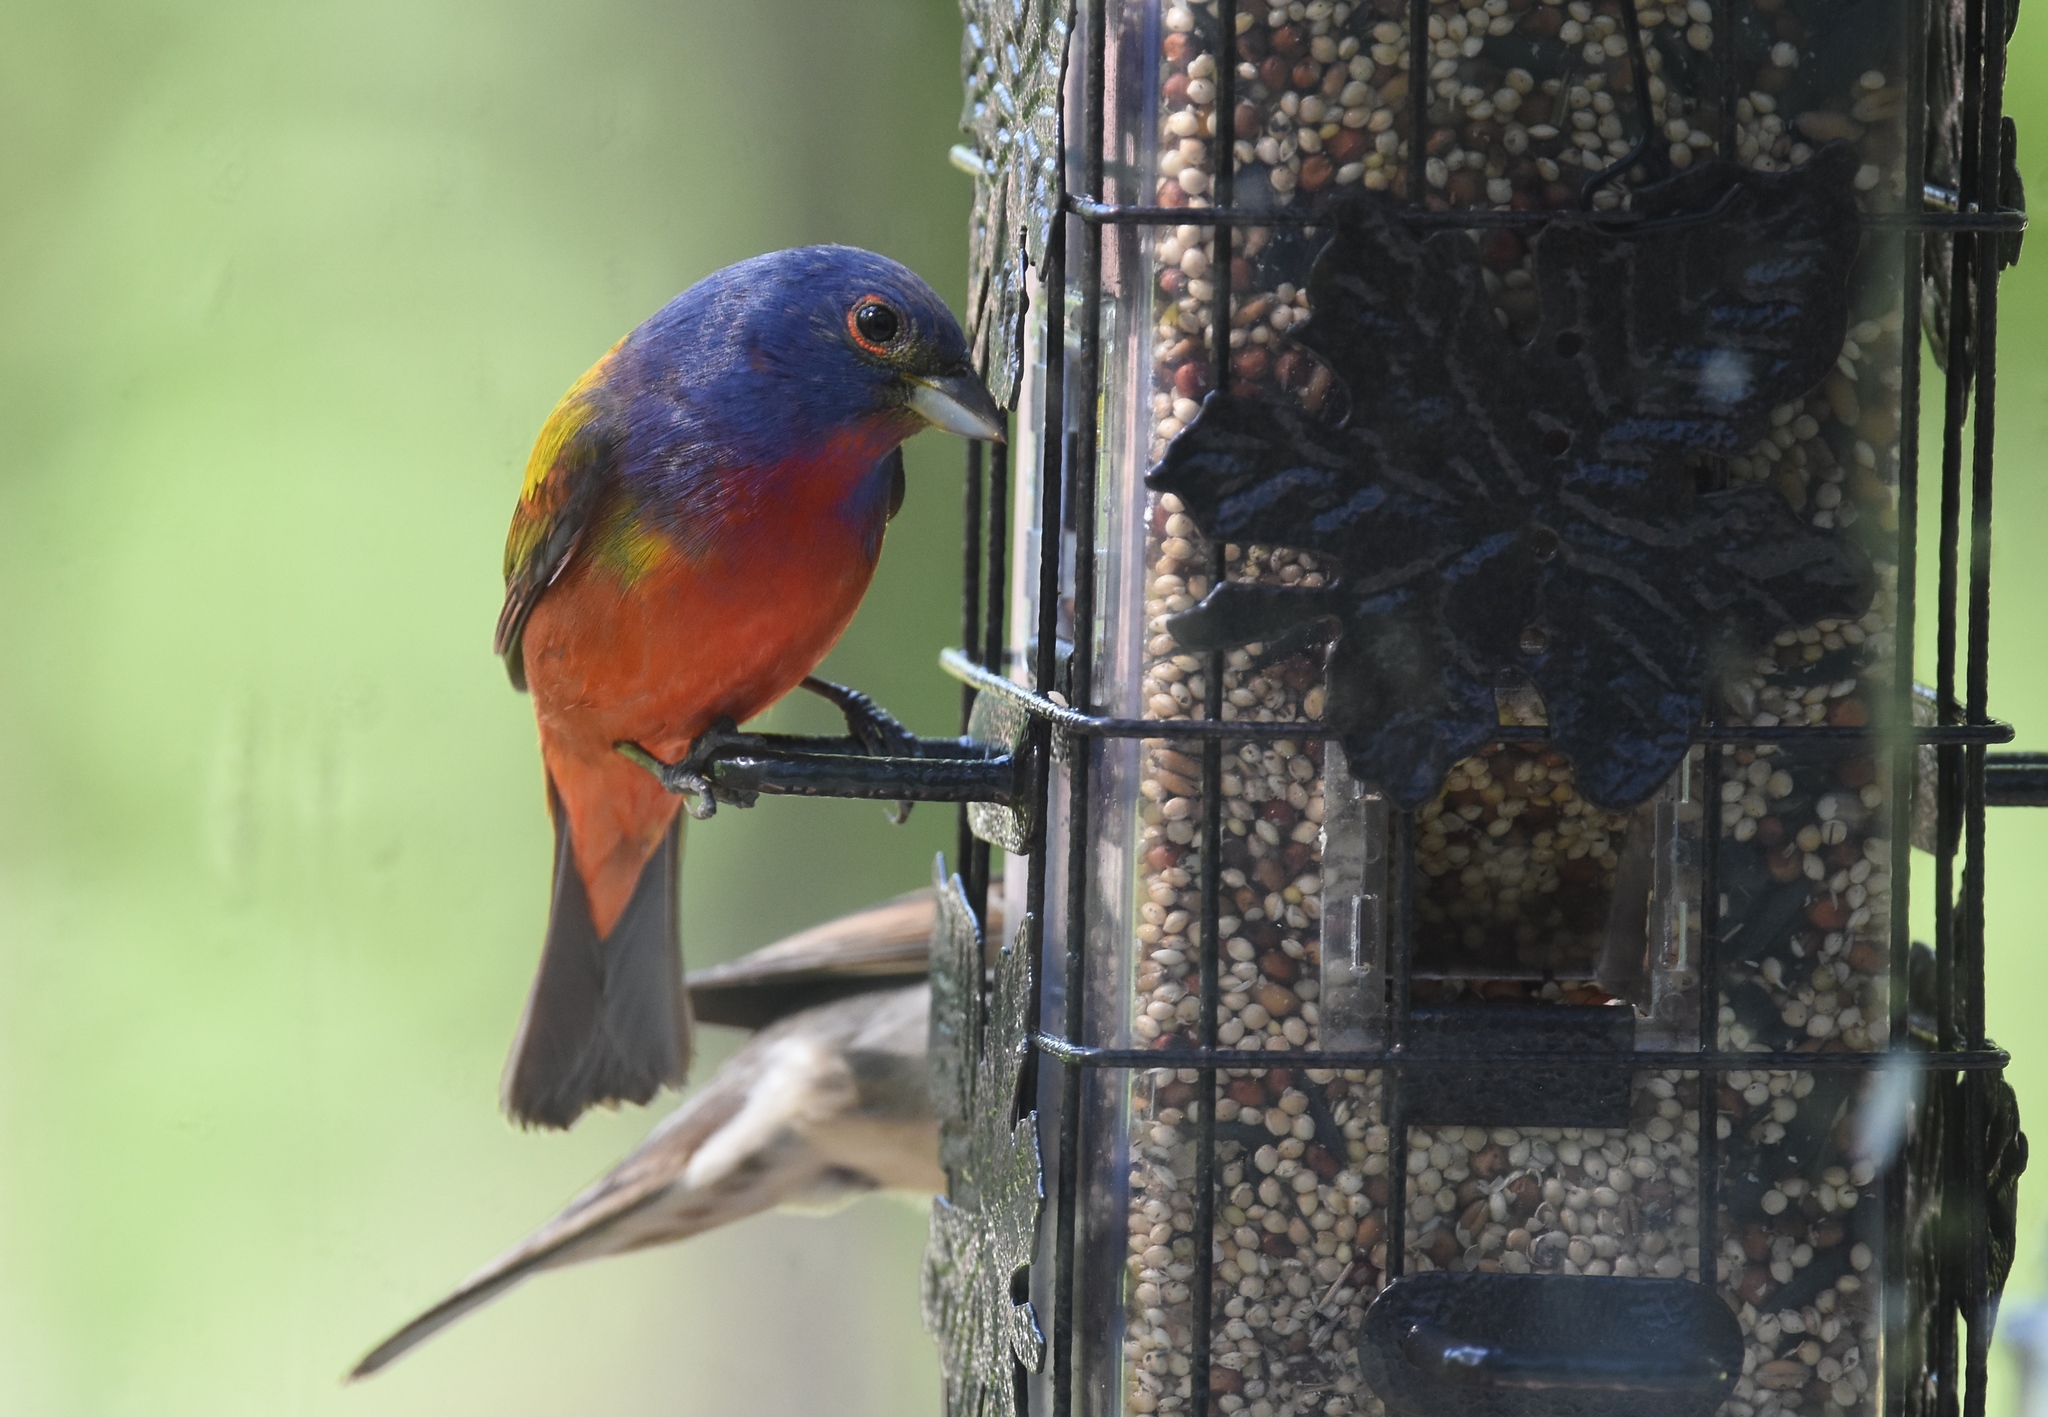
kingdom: Animalia
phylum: Chordata
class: Aves
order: Passeriformes
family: Cardinalidae
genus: Passerina
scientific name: Passerina ciris
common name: Painted bunting
